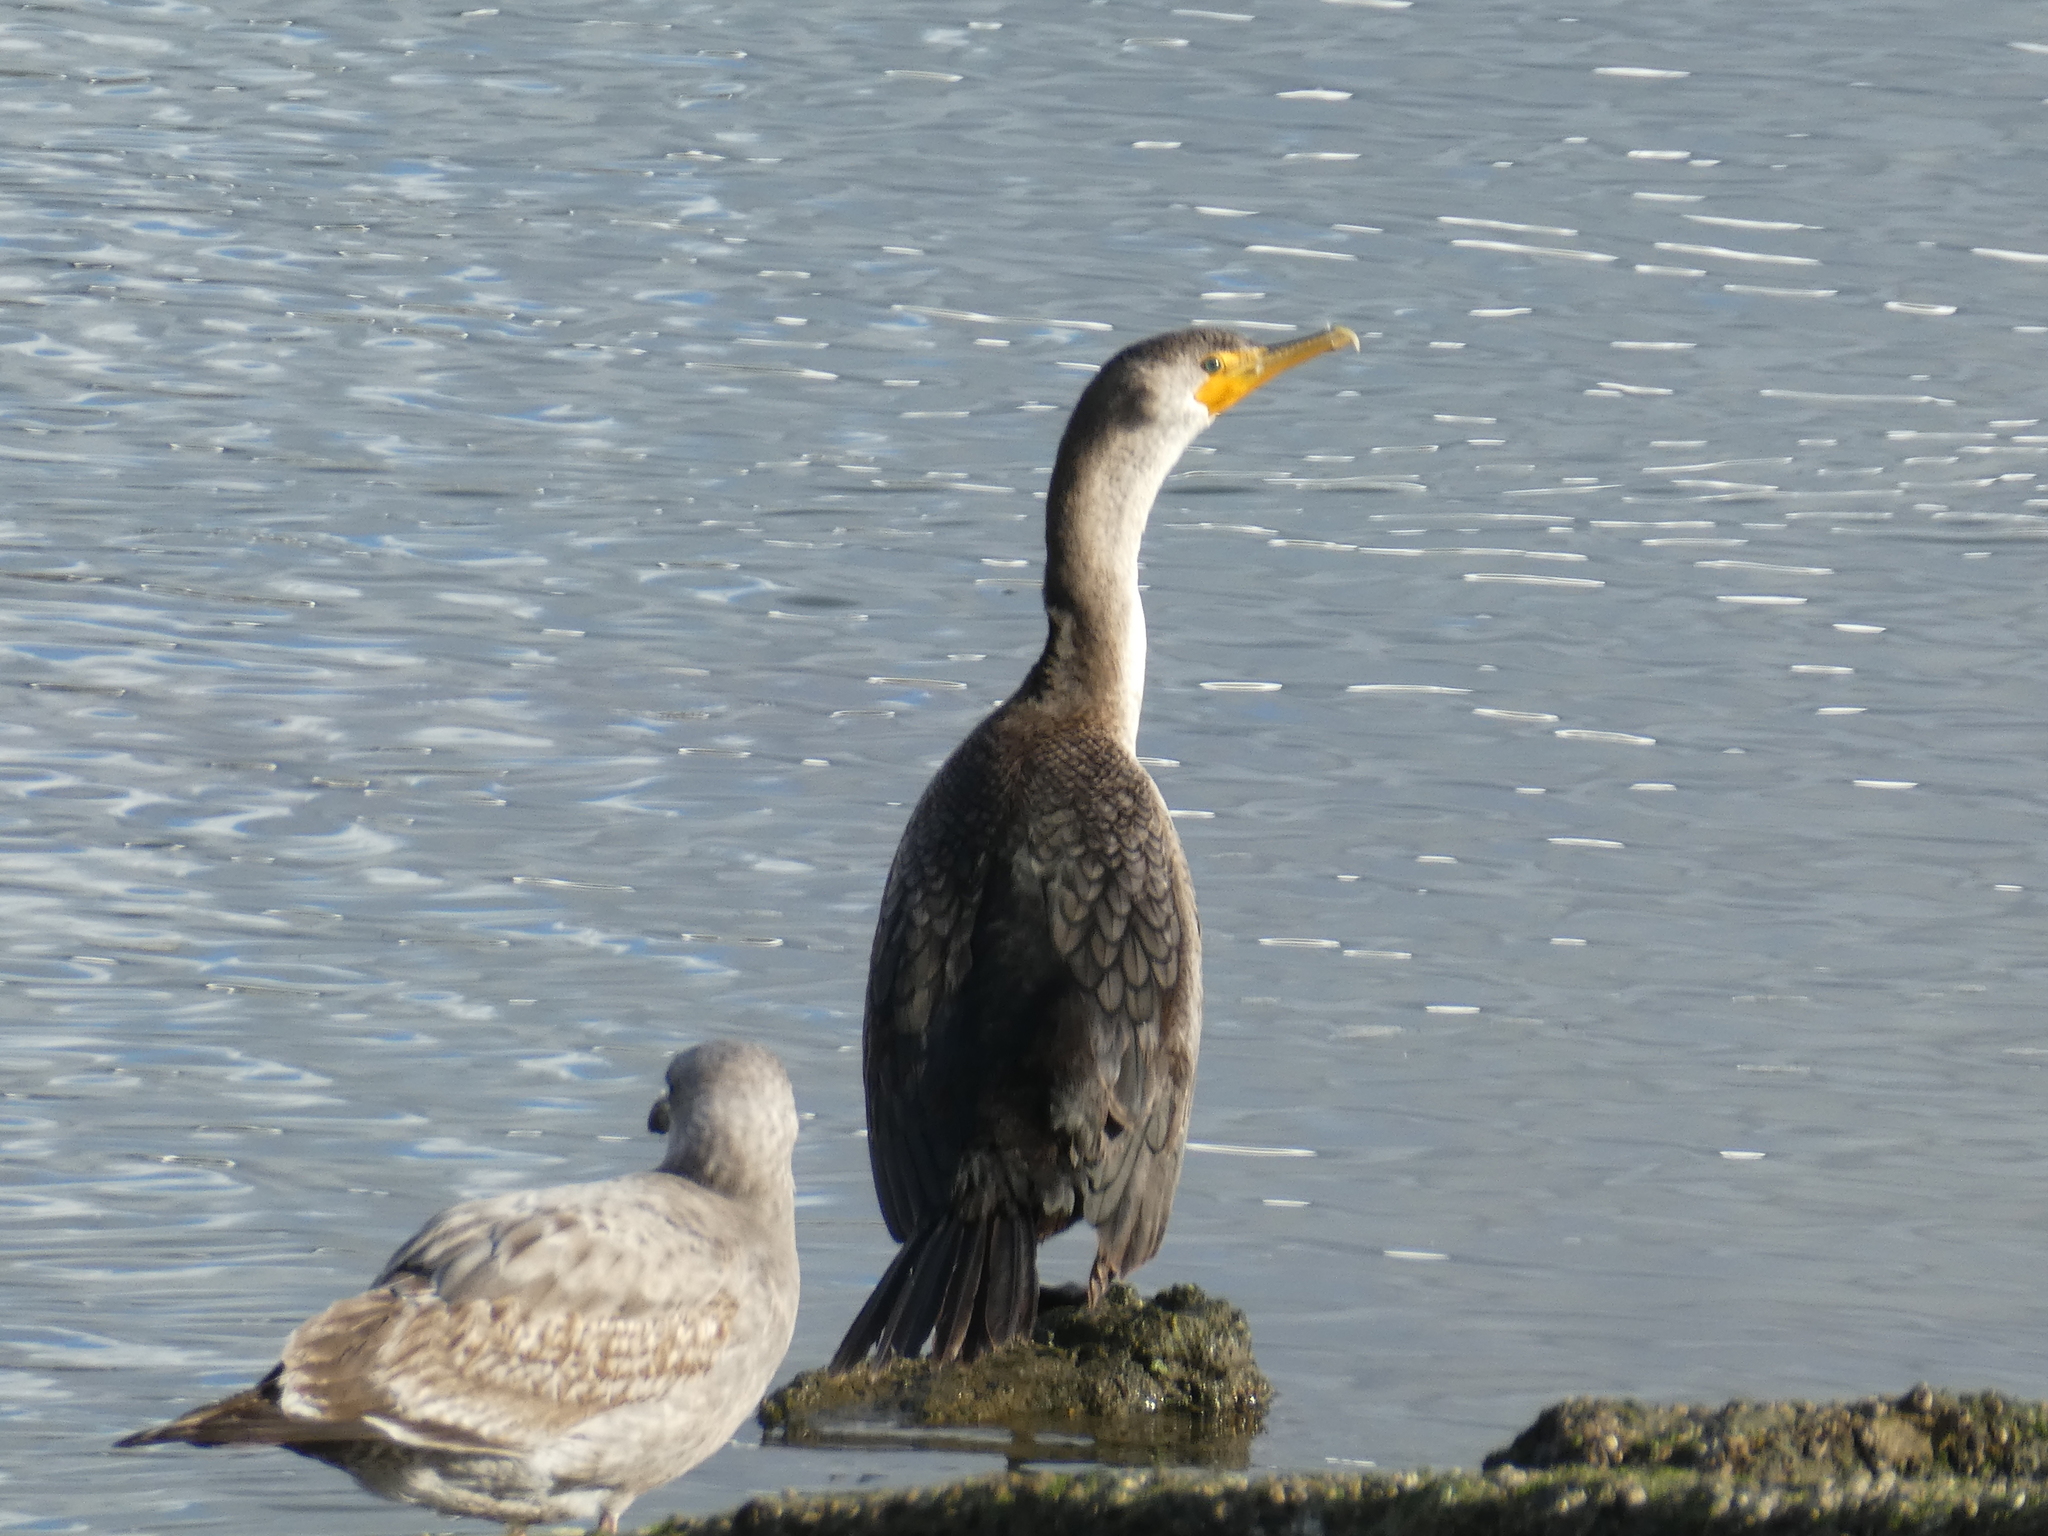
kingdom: Animalia
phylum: Chordata
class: Aves
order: Suliformes
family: Phalacrocoracidae
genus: Phalacrocorax
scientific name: Phalacrocorax auritus
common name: Double-crested cormorant
